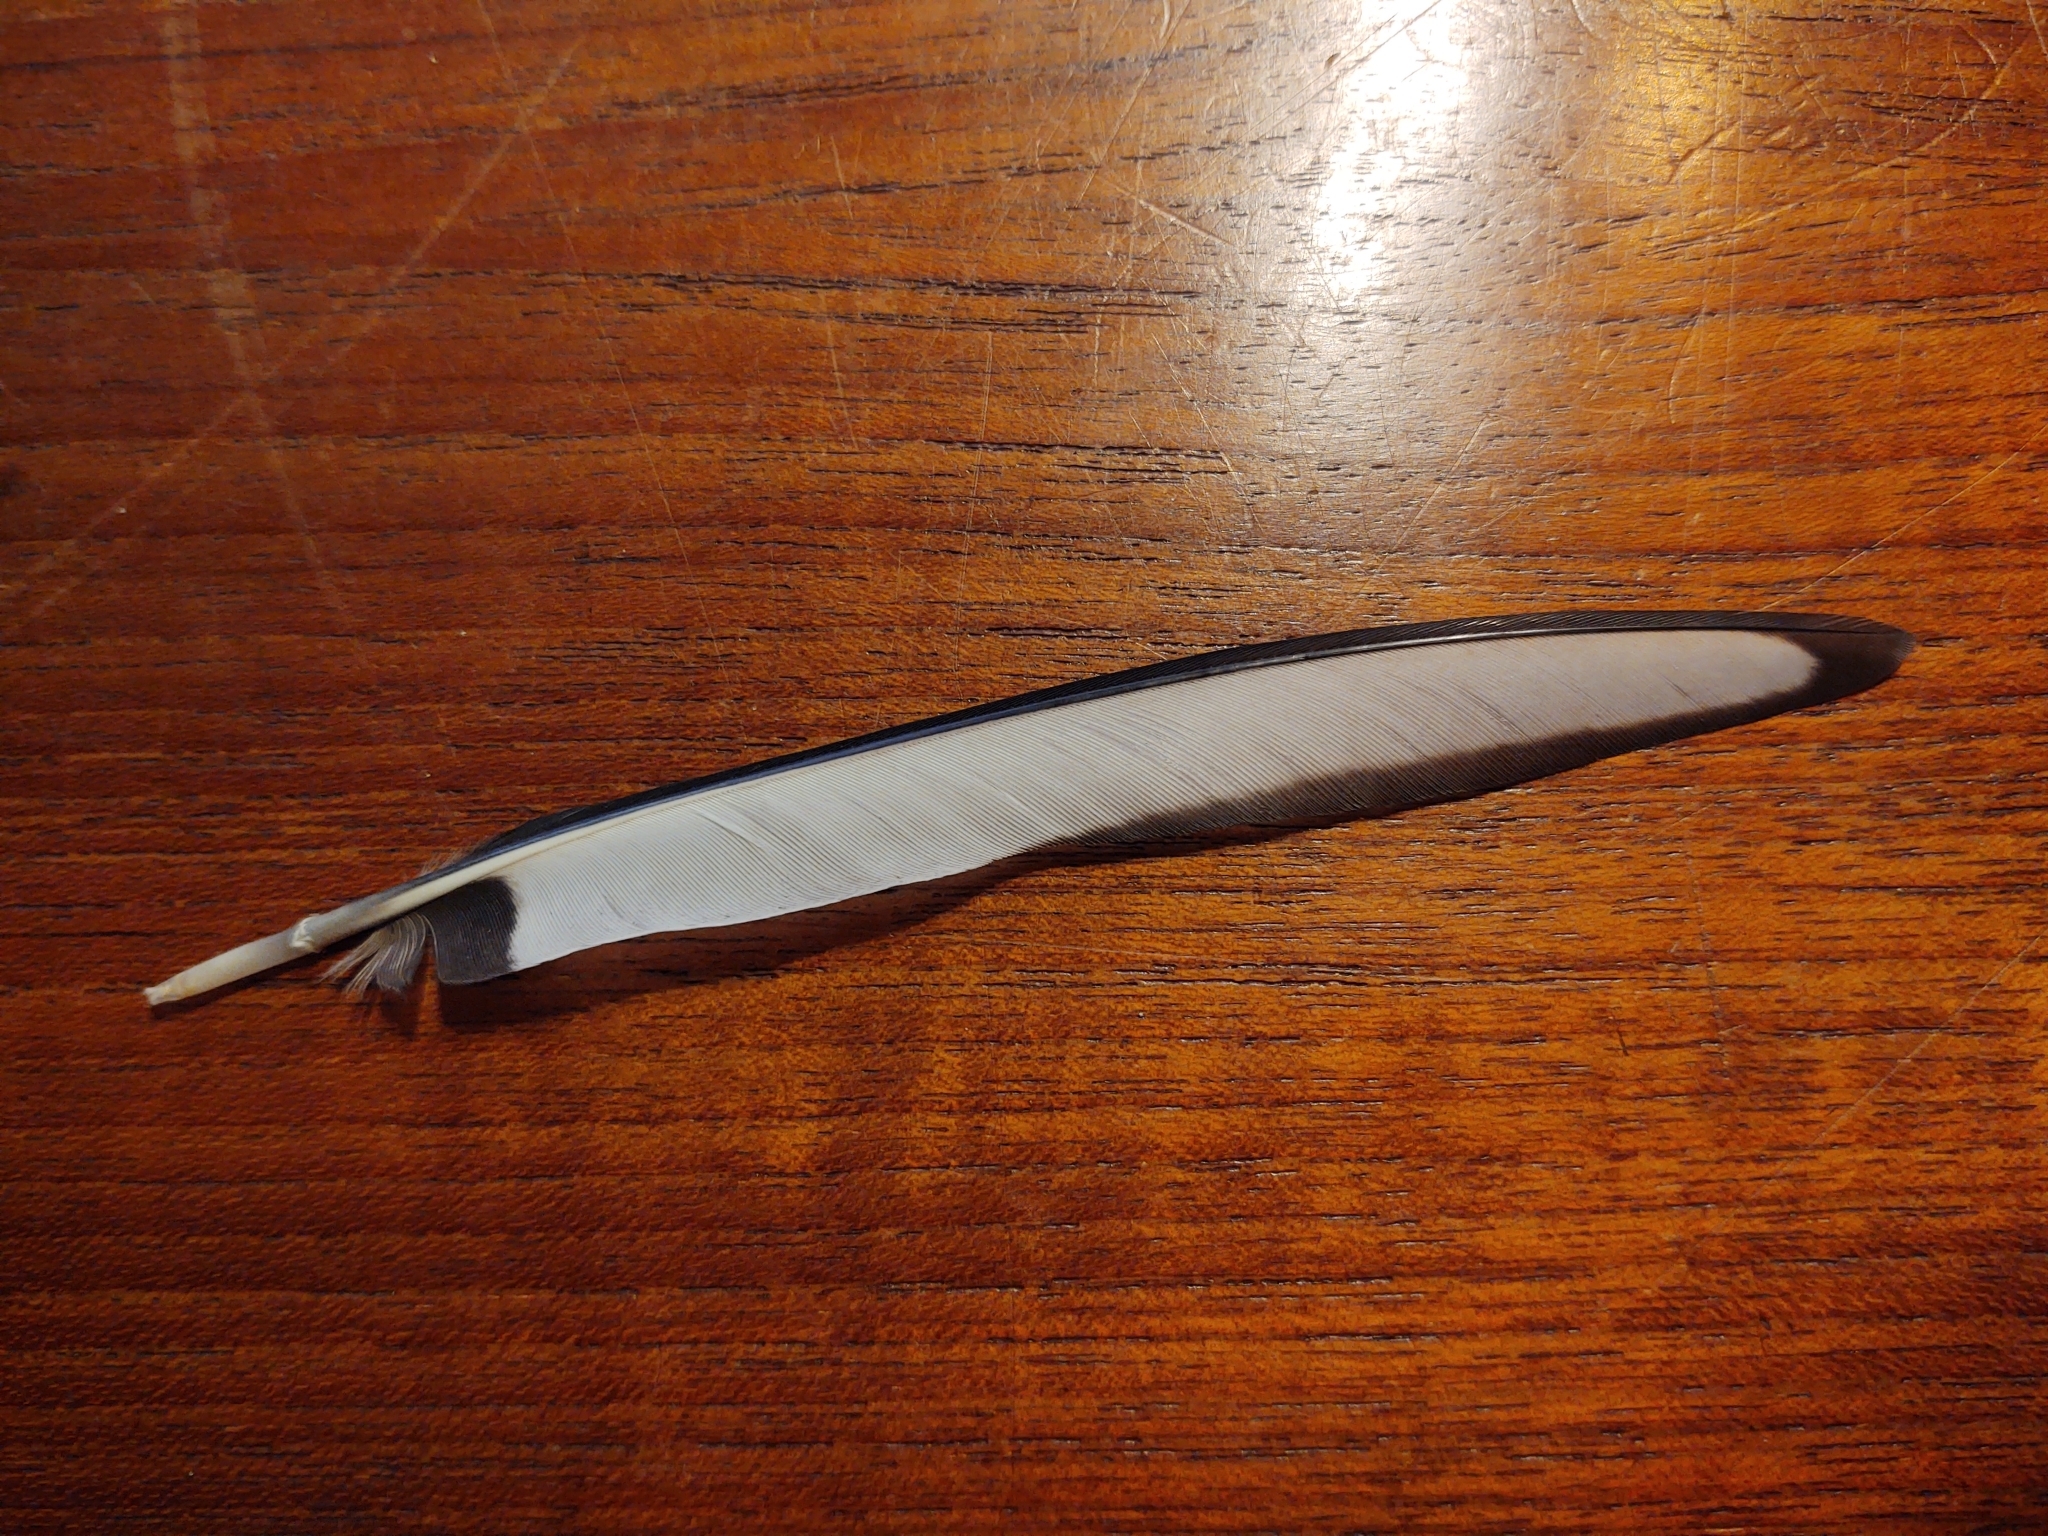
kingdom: Animalia
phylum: Chordata
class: Aves
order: Passeriformes
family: Corvidae
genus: Pica
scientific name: Pica pica
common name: Eurasian magpie
